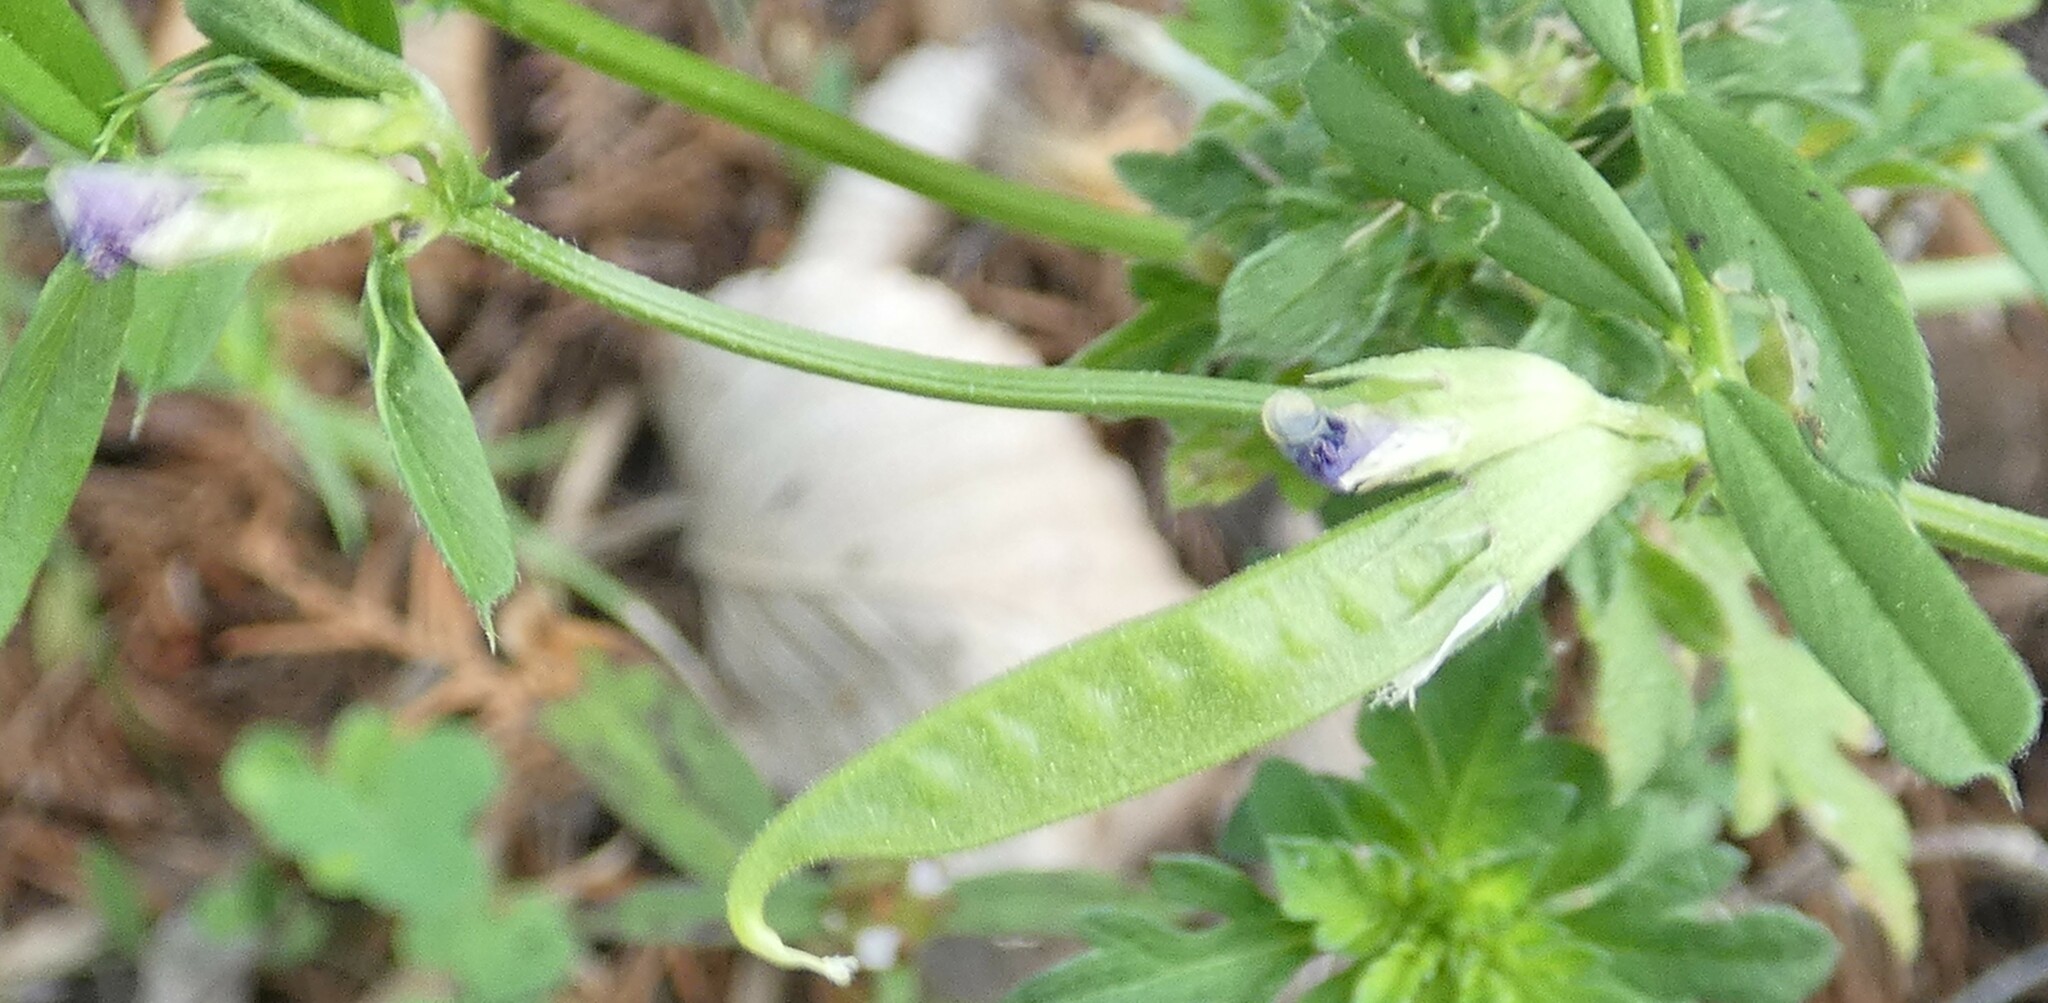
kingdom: Plantae
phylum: Tracheophyta
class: Magnoliopsida
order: Fabales
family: Fabaceae
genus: Vicia
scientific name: Vicia sativa
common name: Garden vetch
